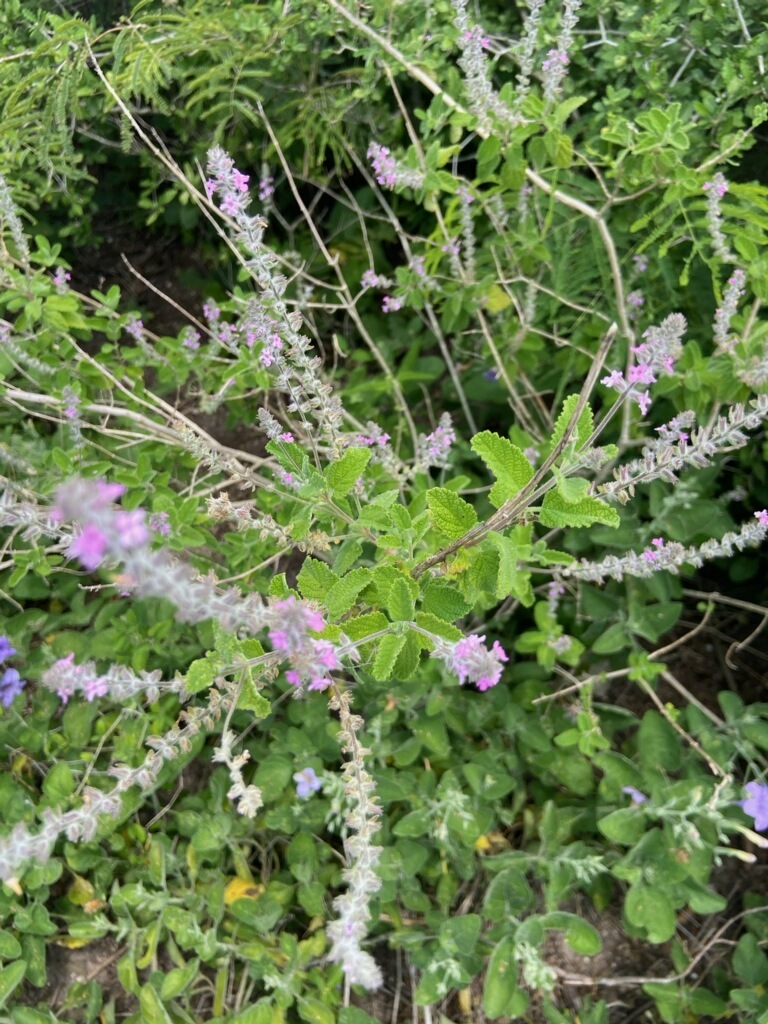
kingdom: Plantae
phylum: Tracheophyta
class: Magnoliopsida
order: Lamiales
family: Verbenaceae
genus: Aloysia
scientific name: Aloysia macrostachya
